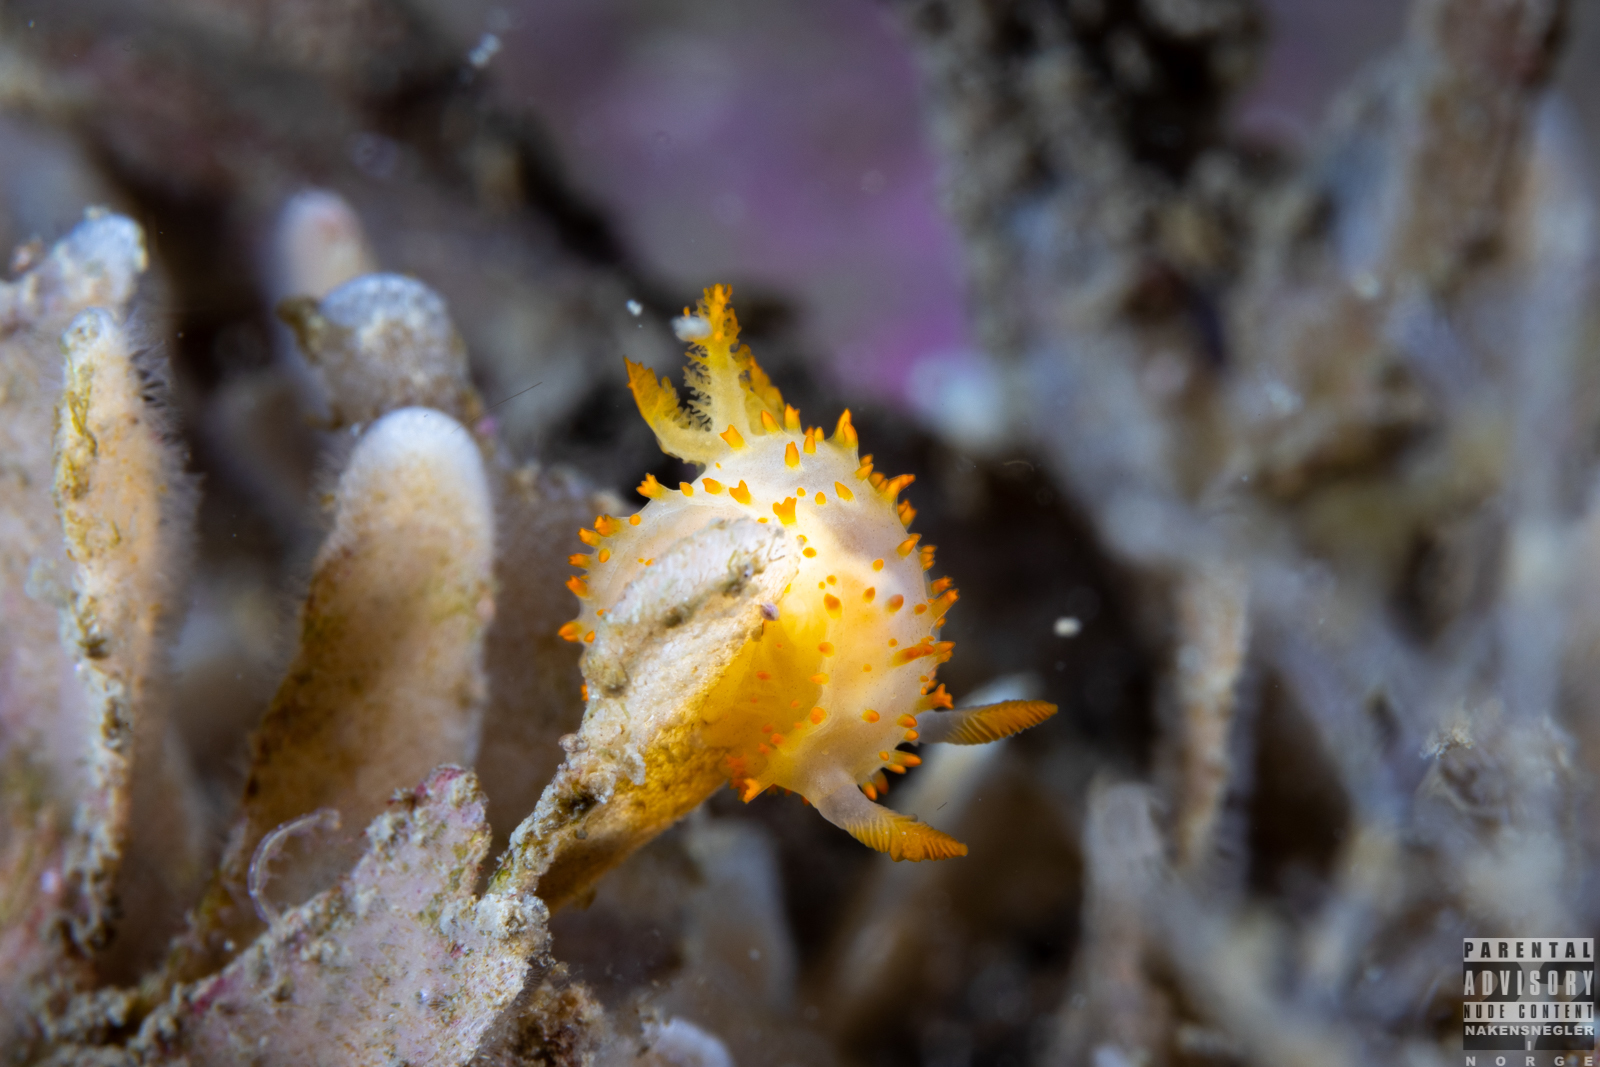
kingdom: Animalia
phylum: Mollusca
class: Gastropoda
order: Nudibranchia
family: Polyceridae
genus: Crimora
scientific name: Crimora papillata
